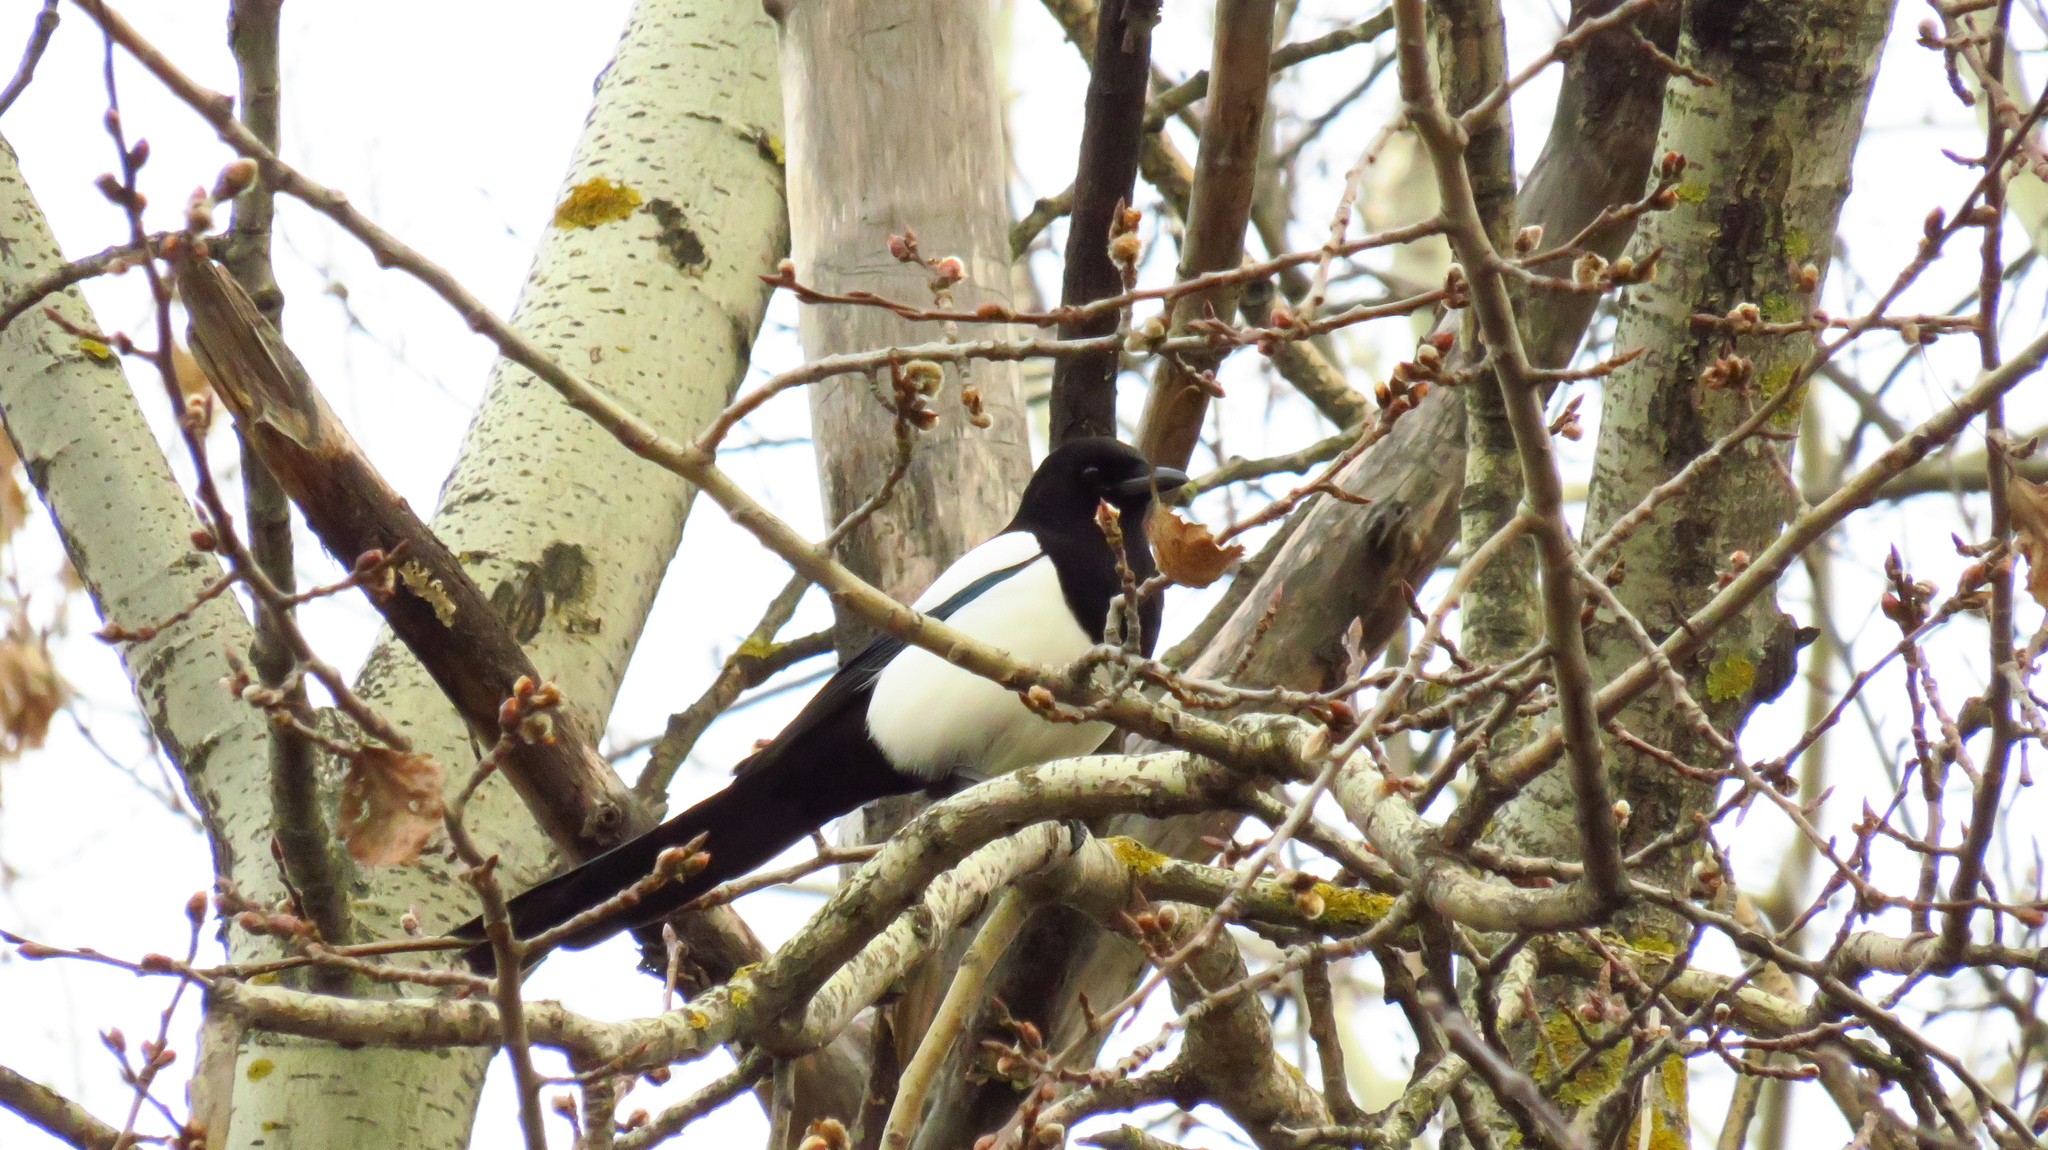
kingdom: Animalia
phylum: Chordata
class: Aves
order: Passeriformes
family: Corvidae
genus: Pica
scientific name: Pica pica
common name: Eurasian magpie
